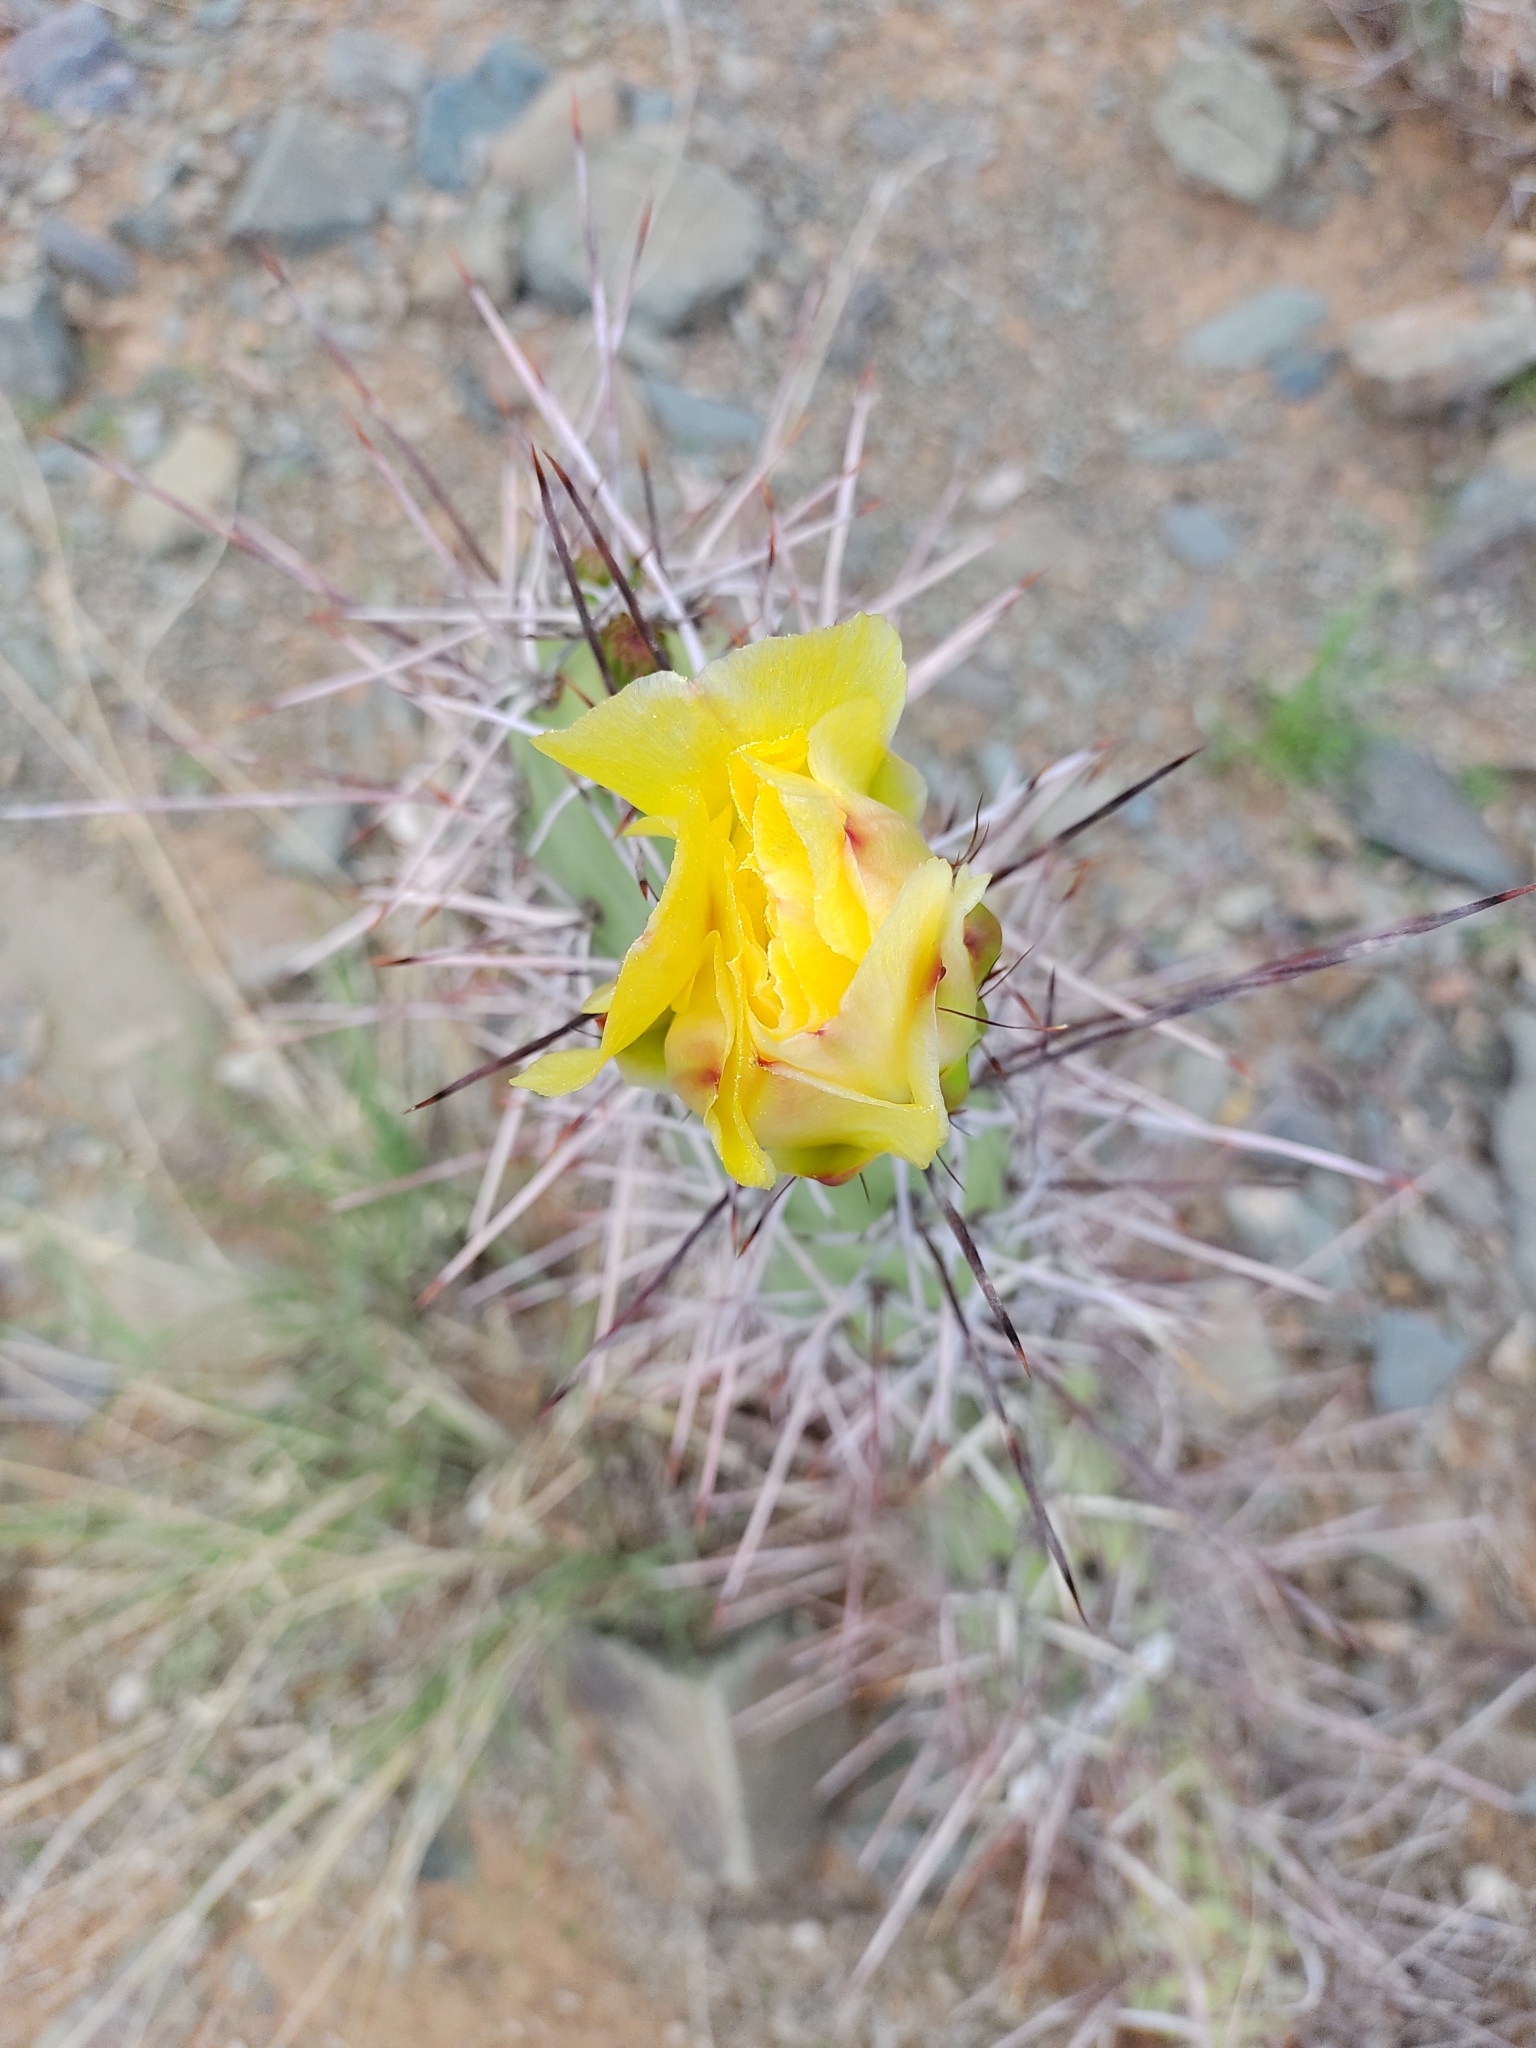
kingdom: Plantae
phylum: Tracheophyta
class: Magnoliopsida
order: Caryophyllales
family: Cactaceae
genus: Opuntia
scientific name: Opuntia sulphurea
